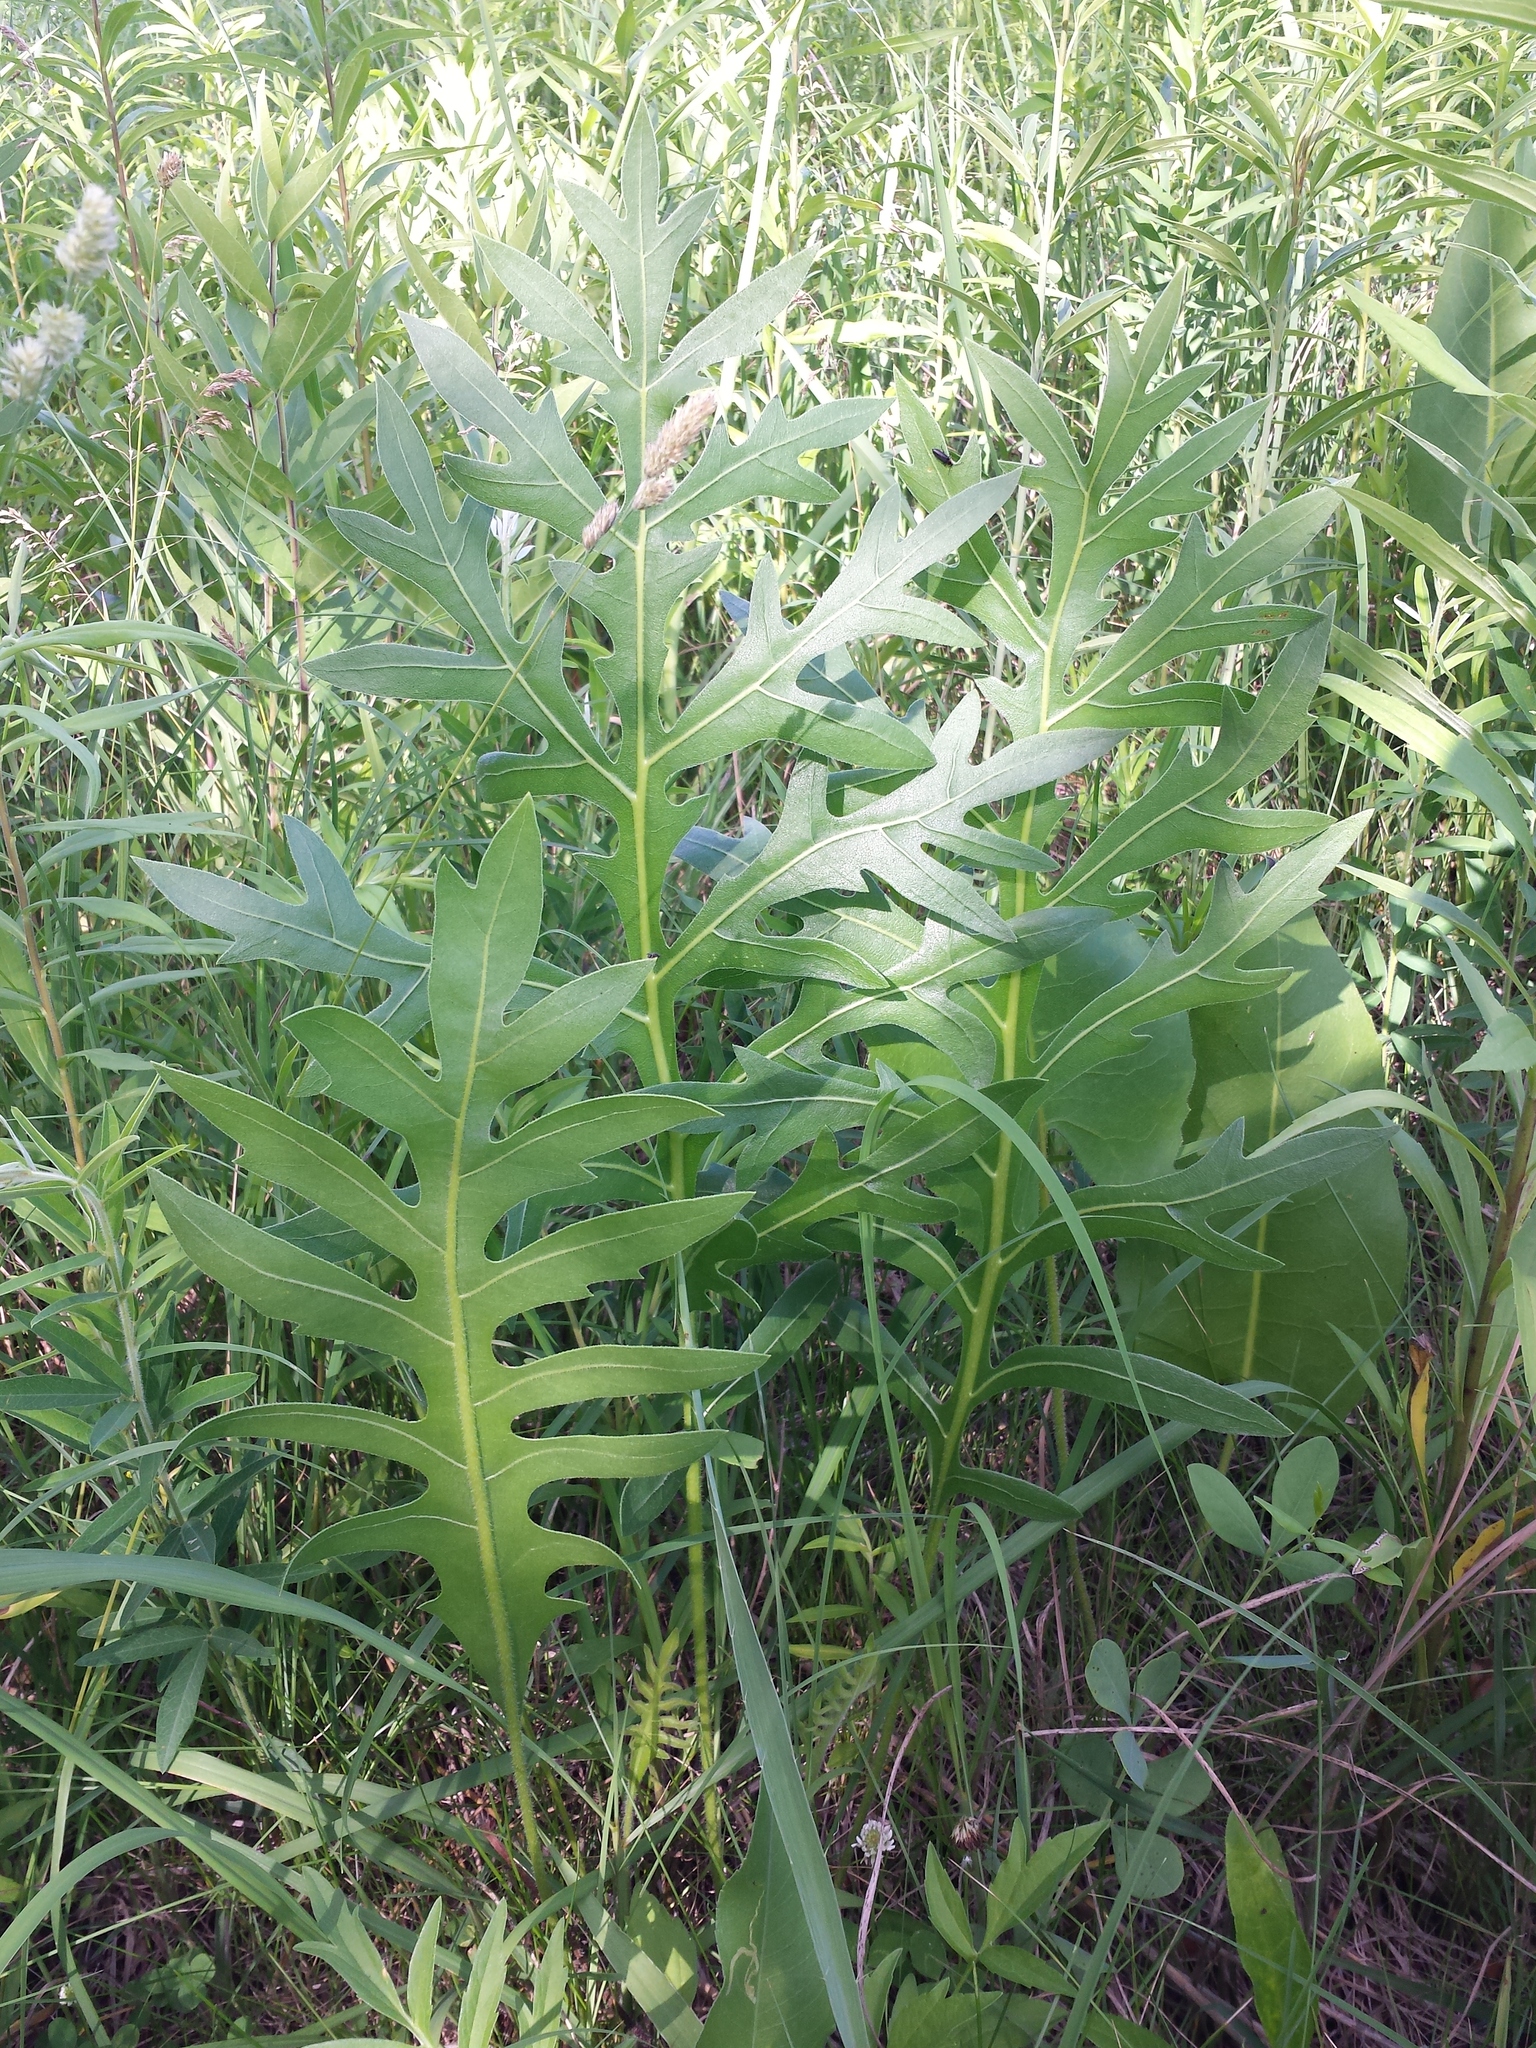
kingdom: Plantae
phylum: Tracheophyta
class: Magnoliopsida
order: Asterales
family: Asteraceae
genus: Silphium
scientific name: Silphium laciniatum
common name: Polarplant
